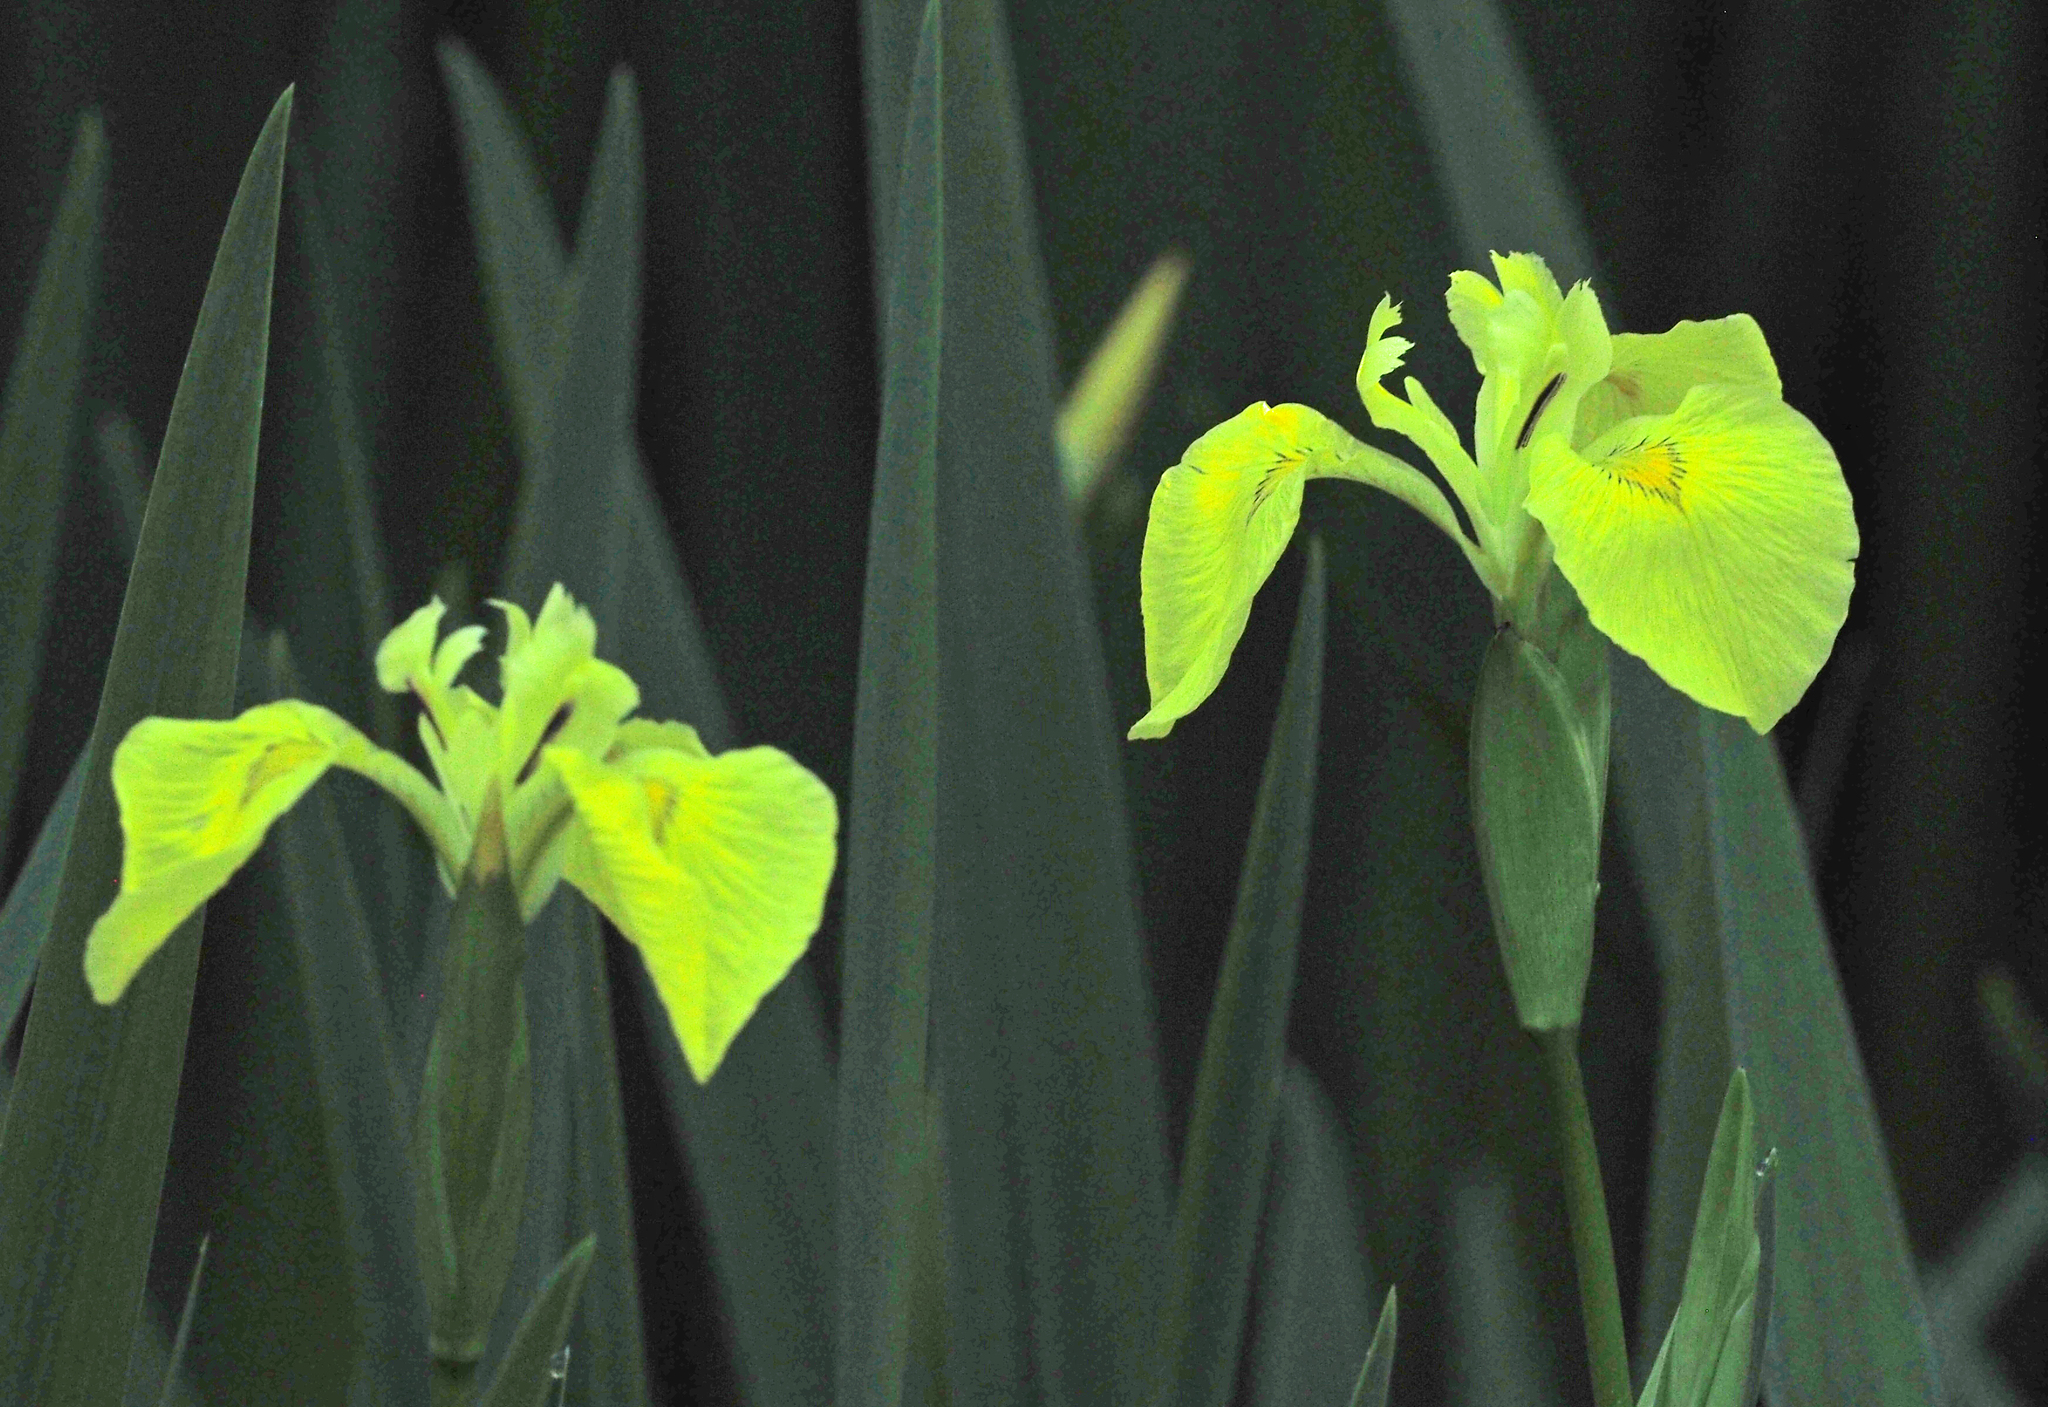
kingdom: Plantae
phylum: Tracheophyta
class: Liliopsida
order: Asparagales
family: Iridaceae
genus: Iris
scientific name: Iris pseudacorus
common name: Yellow flag
